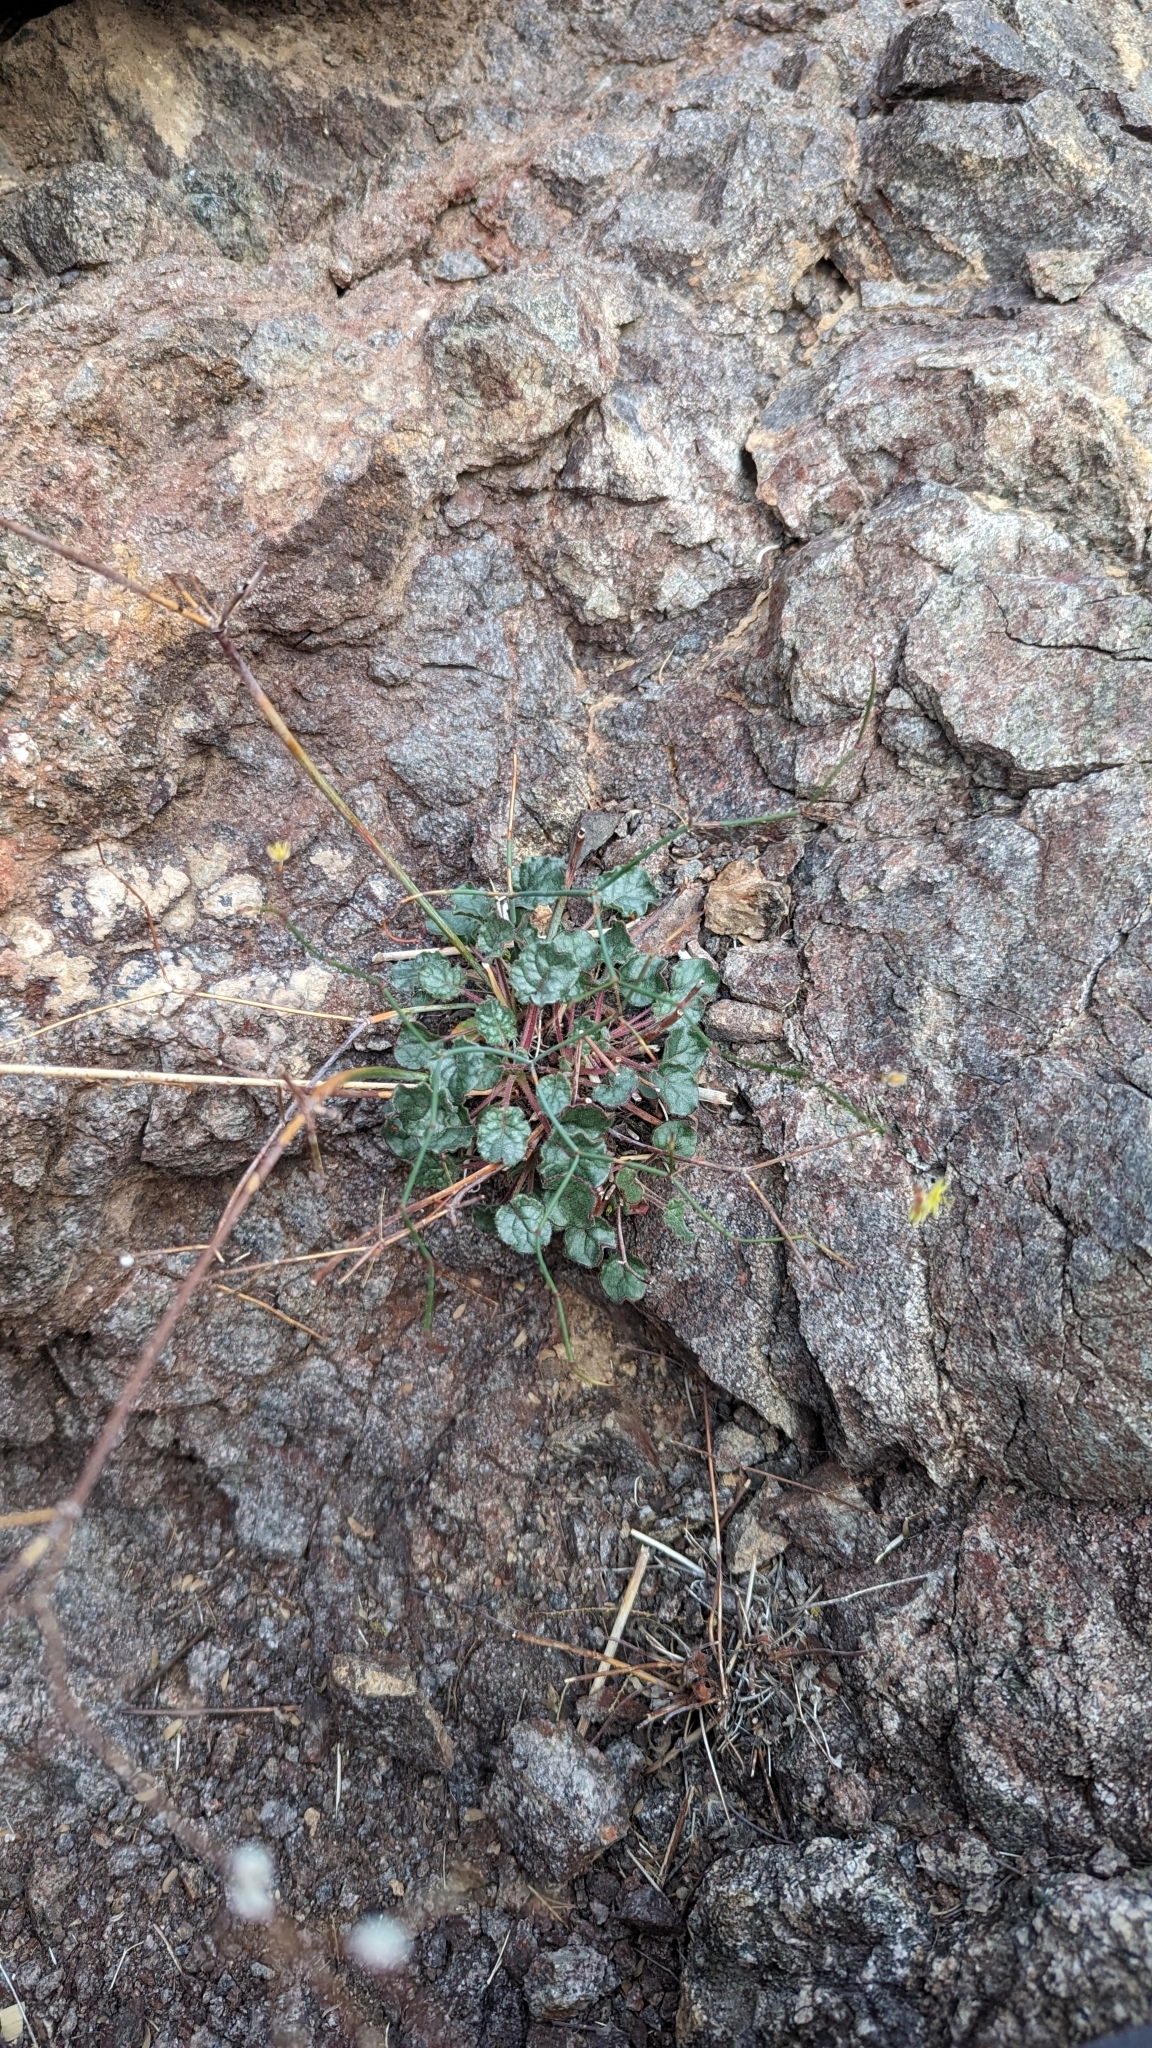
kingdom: Plantae
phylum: Tracheophyta
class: Magnoliopsida
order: Caryophyllales
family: Polygonaceae
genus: Eriogonum
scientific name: Eriogonum inflatum
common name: Desert trumpet
